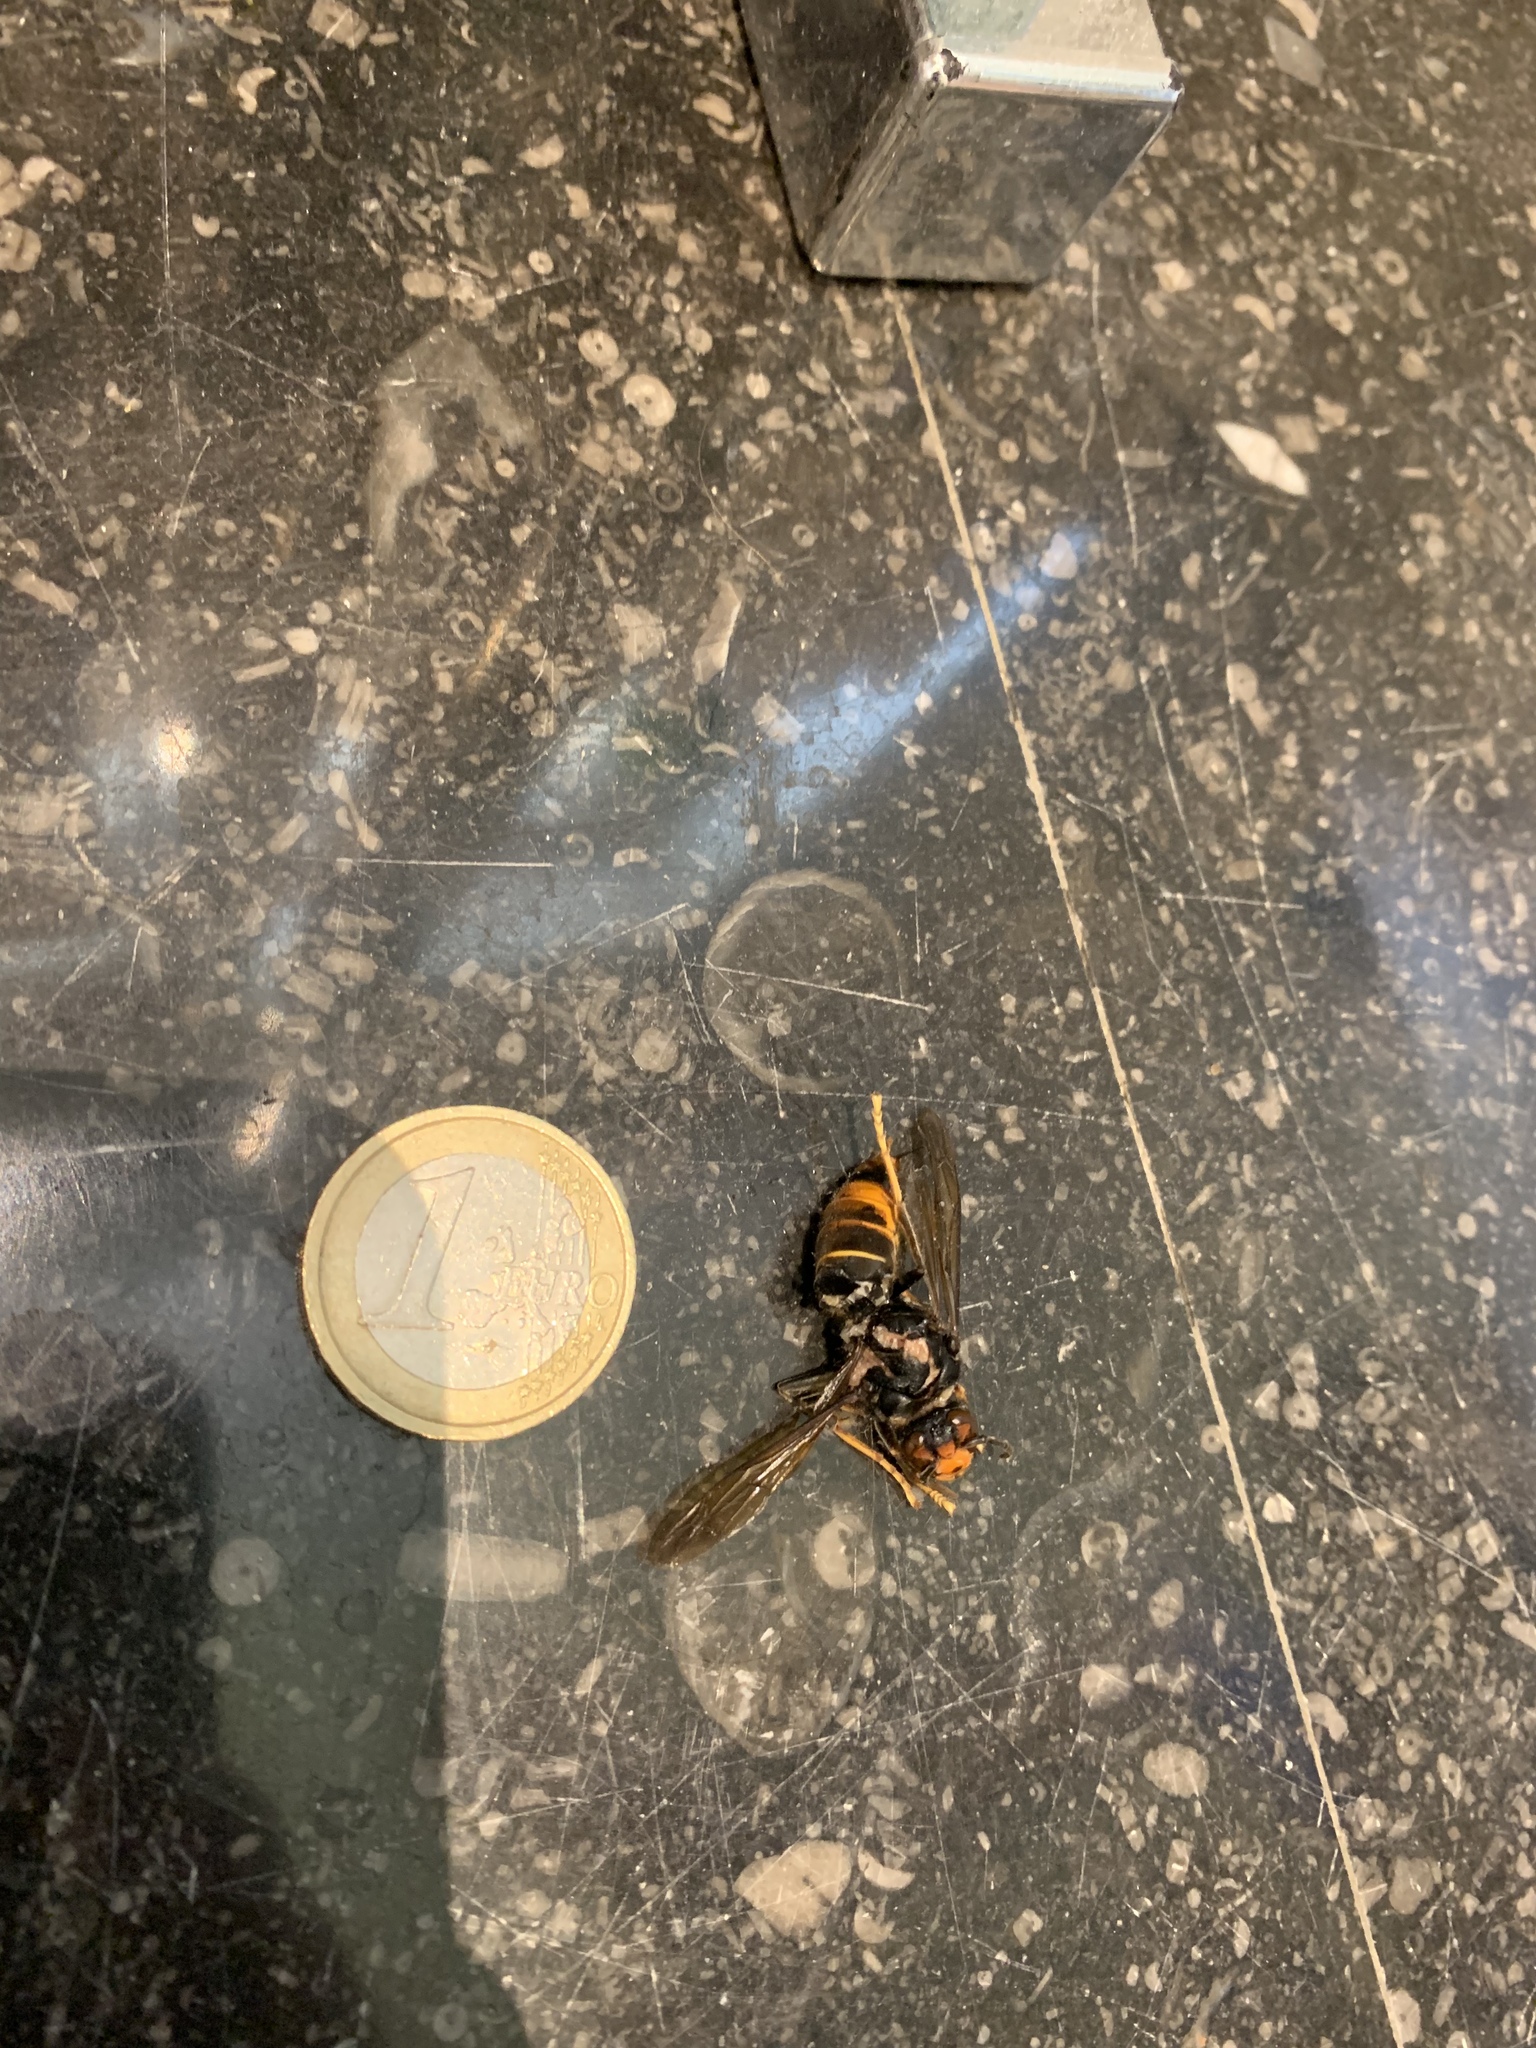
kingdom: Animalia
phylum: Arthropoda
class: Insecta
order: Hymenoptera
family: Vespidae
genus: Vespa
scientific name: Vespa velutina
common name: Asian hornet
